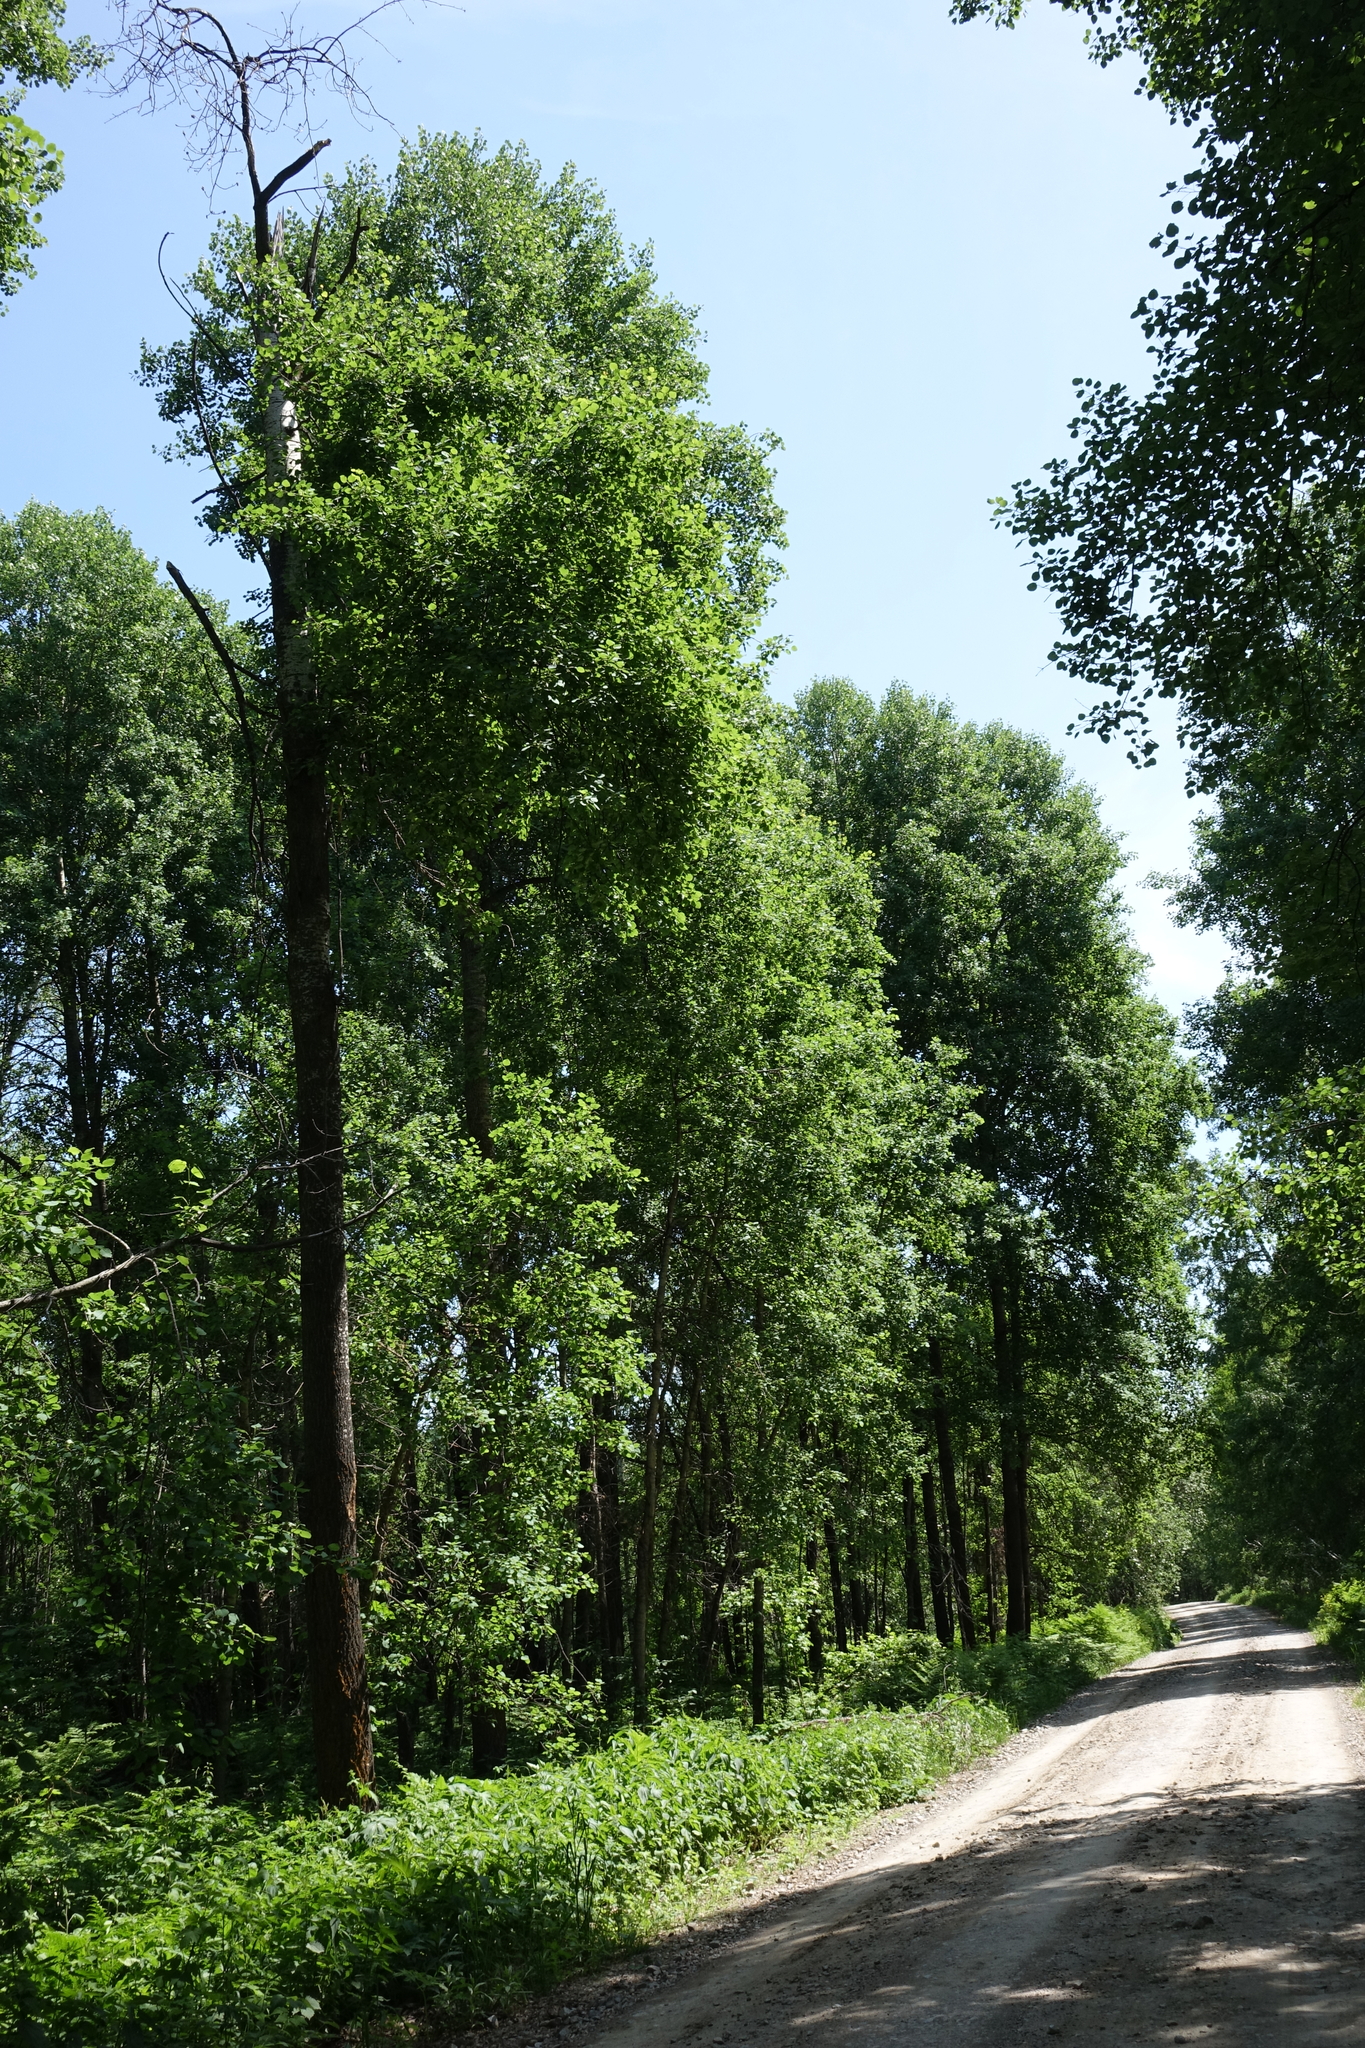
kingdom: Plantae
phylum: Tracheophyta
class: Magnoliopsida
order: Malpighiales
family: Salicaceae
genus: Populus
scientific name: Populus tremula
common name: European aspen
